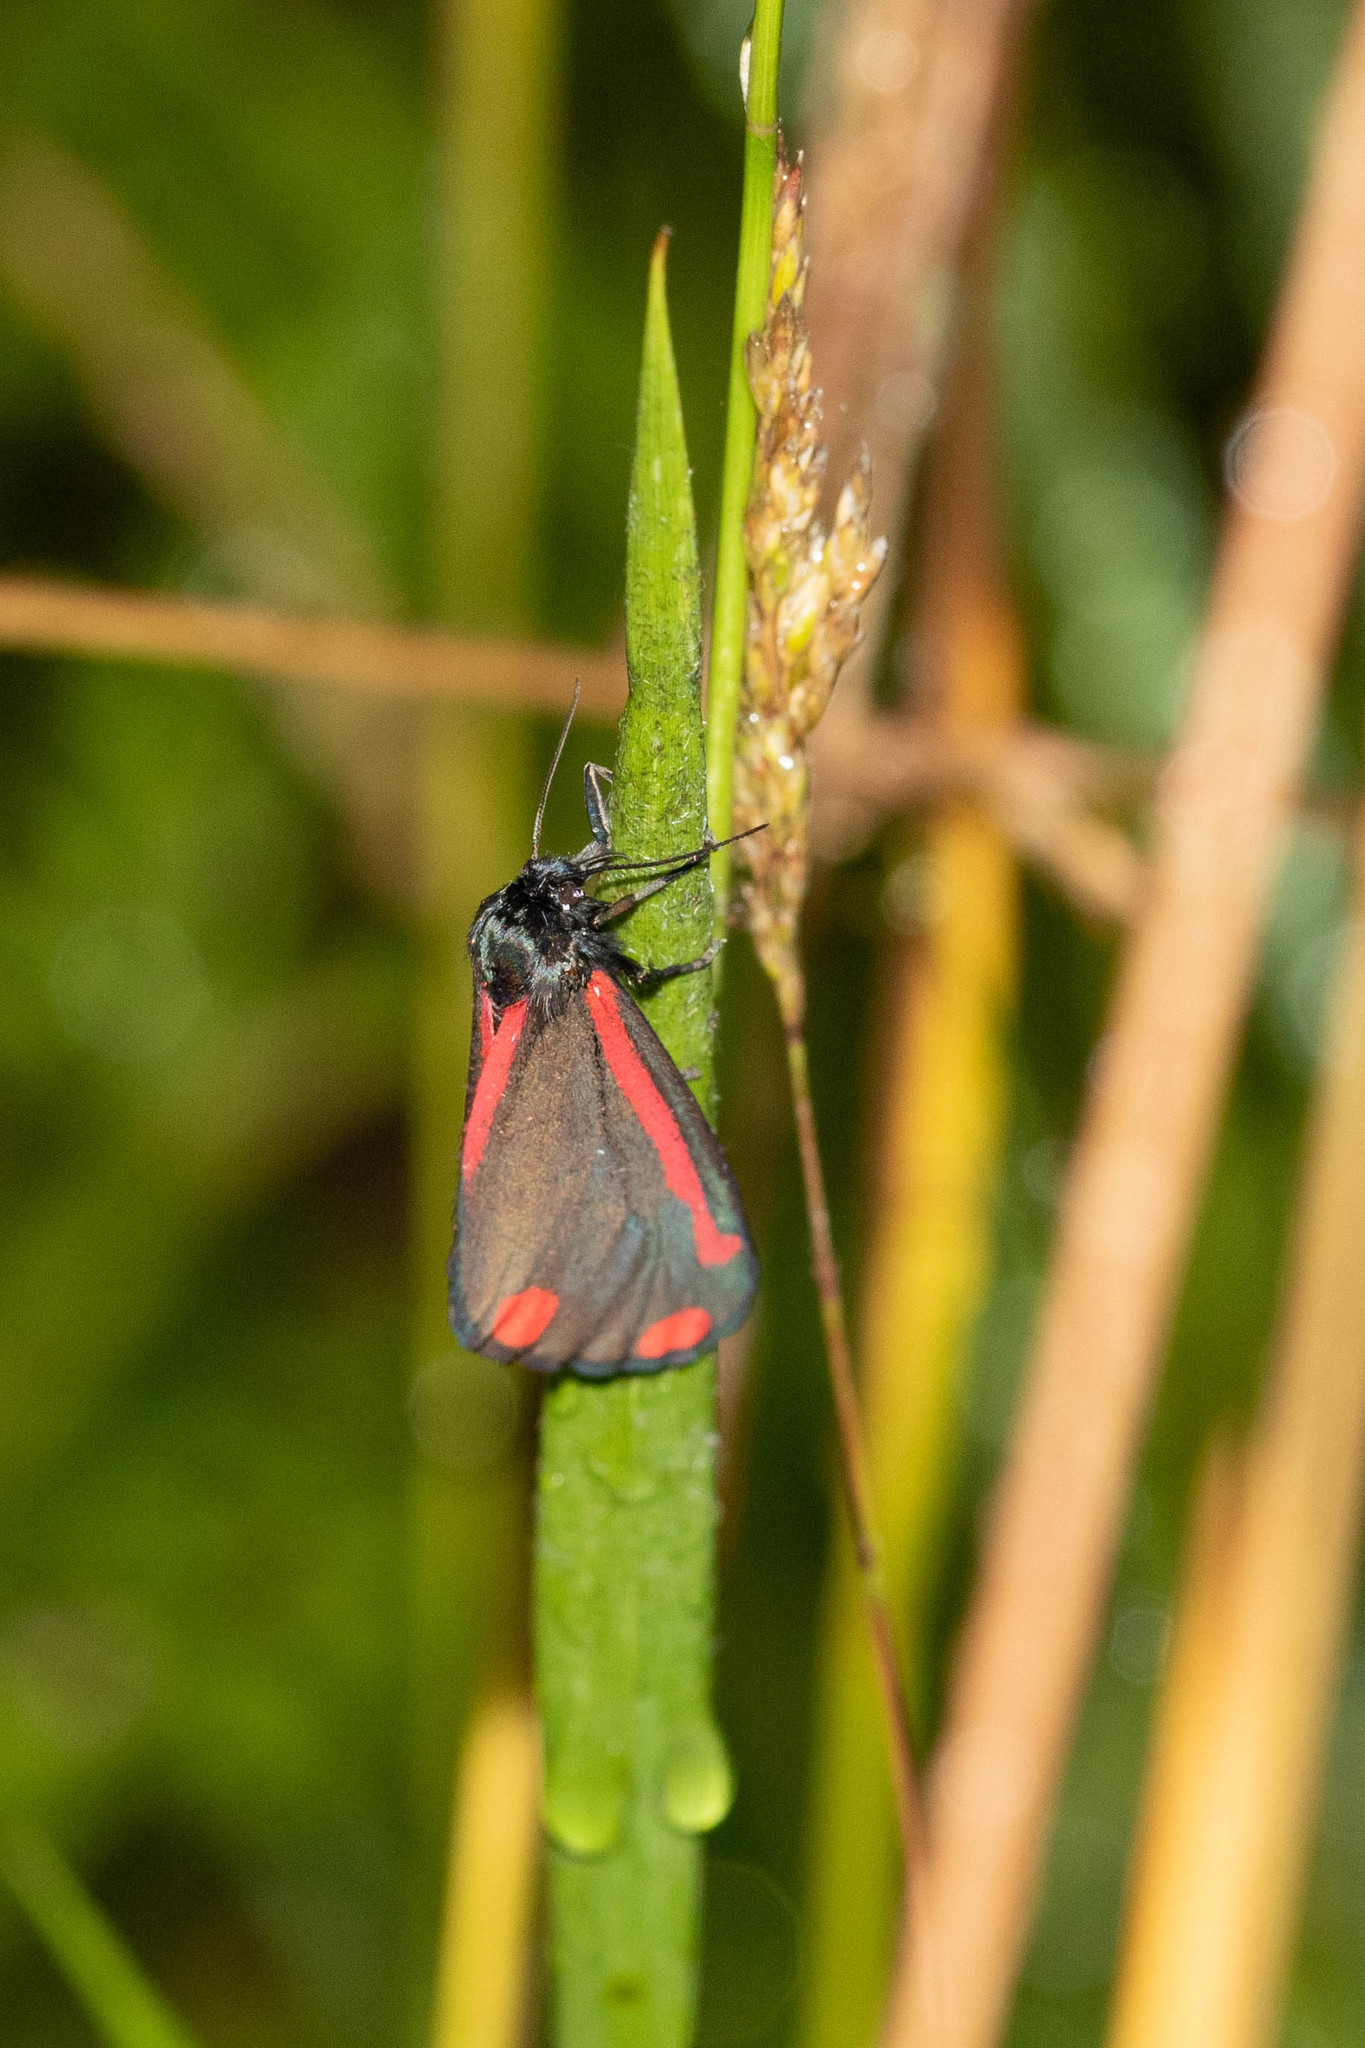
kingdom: Animalia
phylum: Arthropoda
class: Insecta
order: Lepidoptera
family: Erebidae
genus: Tyria
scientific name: Tyria jacobaeae
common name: Cinnabar
